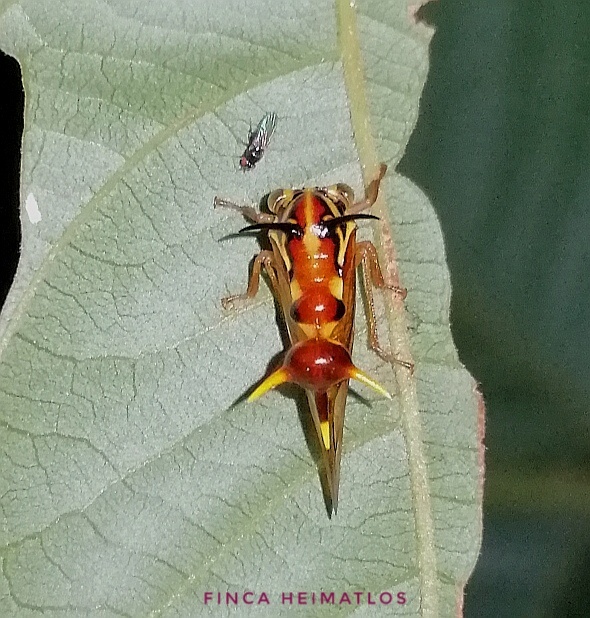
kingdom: Animalia
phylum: Arthropoda
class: Insecta
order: Hemiptera
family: Membracidae
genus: Heteronotus
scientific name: Heteronotus vespiformes
